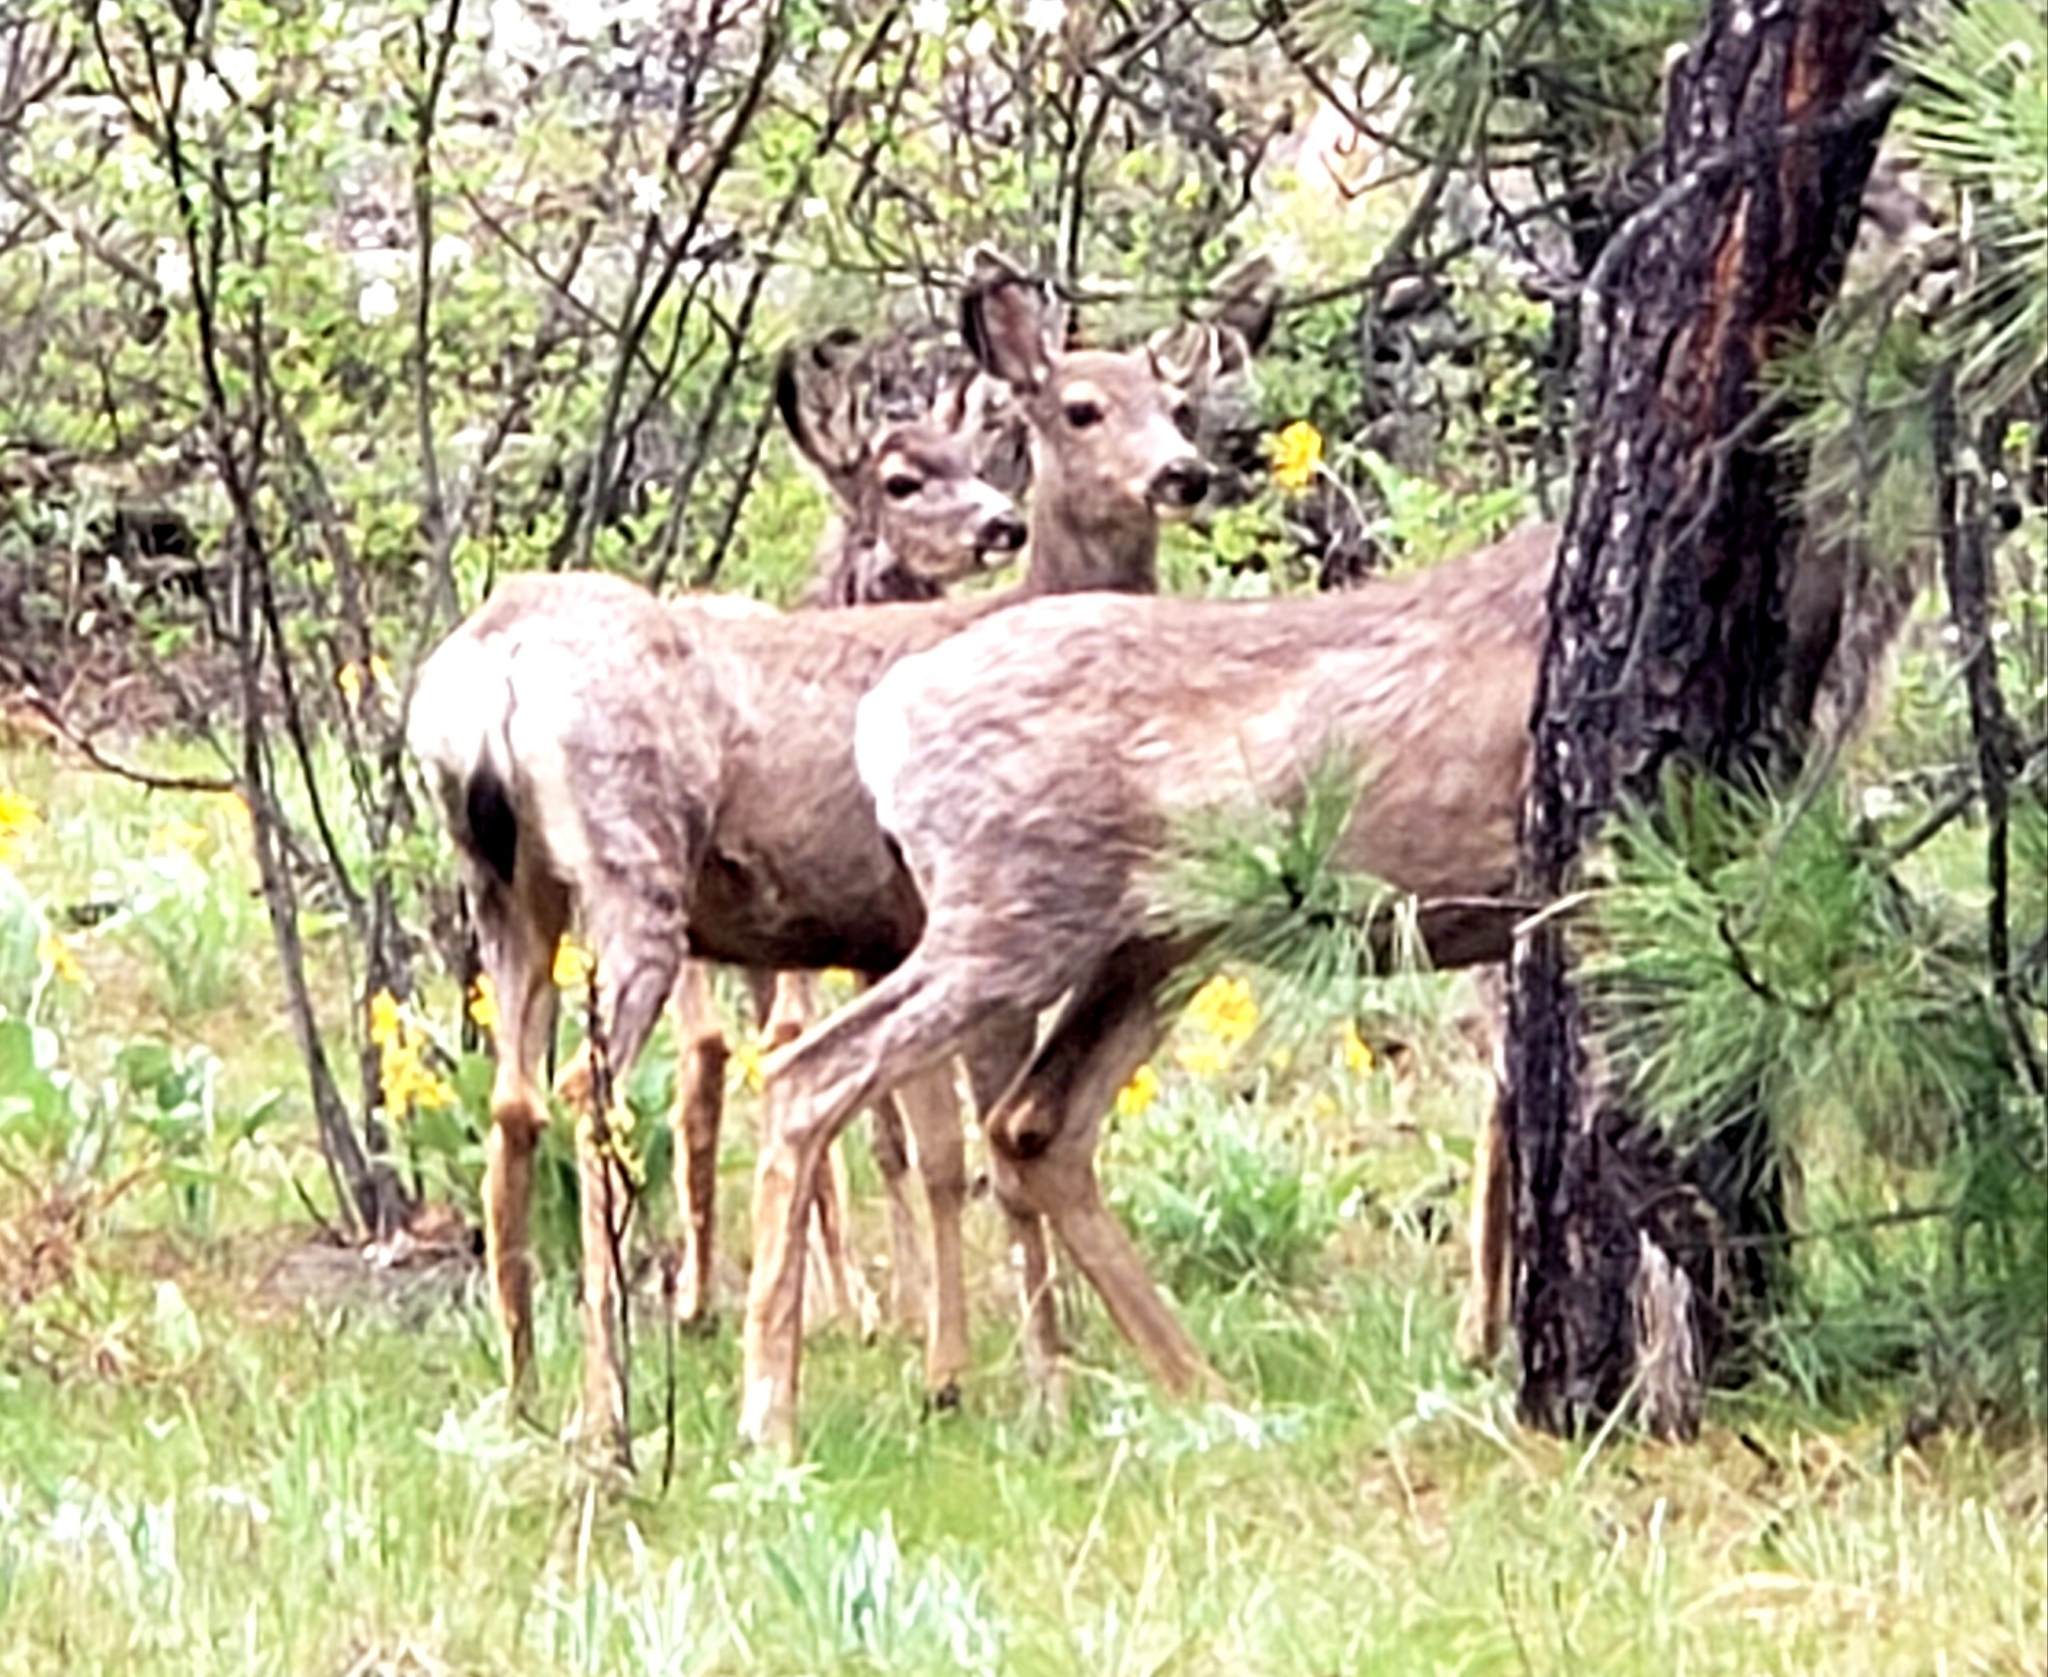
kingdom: Animalia
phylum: Chordata
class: Mammalia
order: Artiodactyla
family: Cervidae
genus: Odocoileus
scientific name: Odocoileus hemionus
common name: Mule deer
